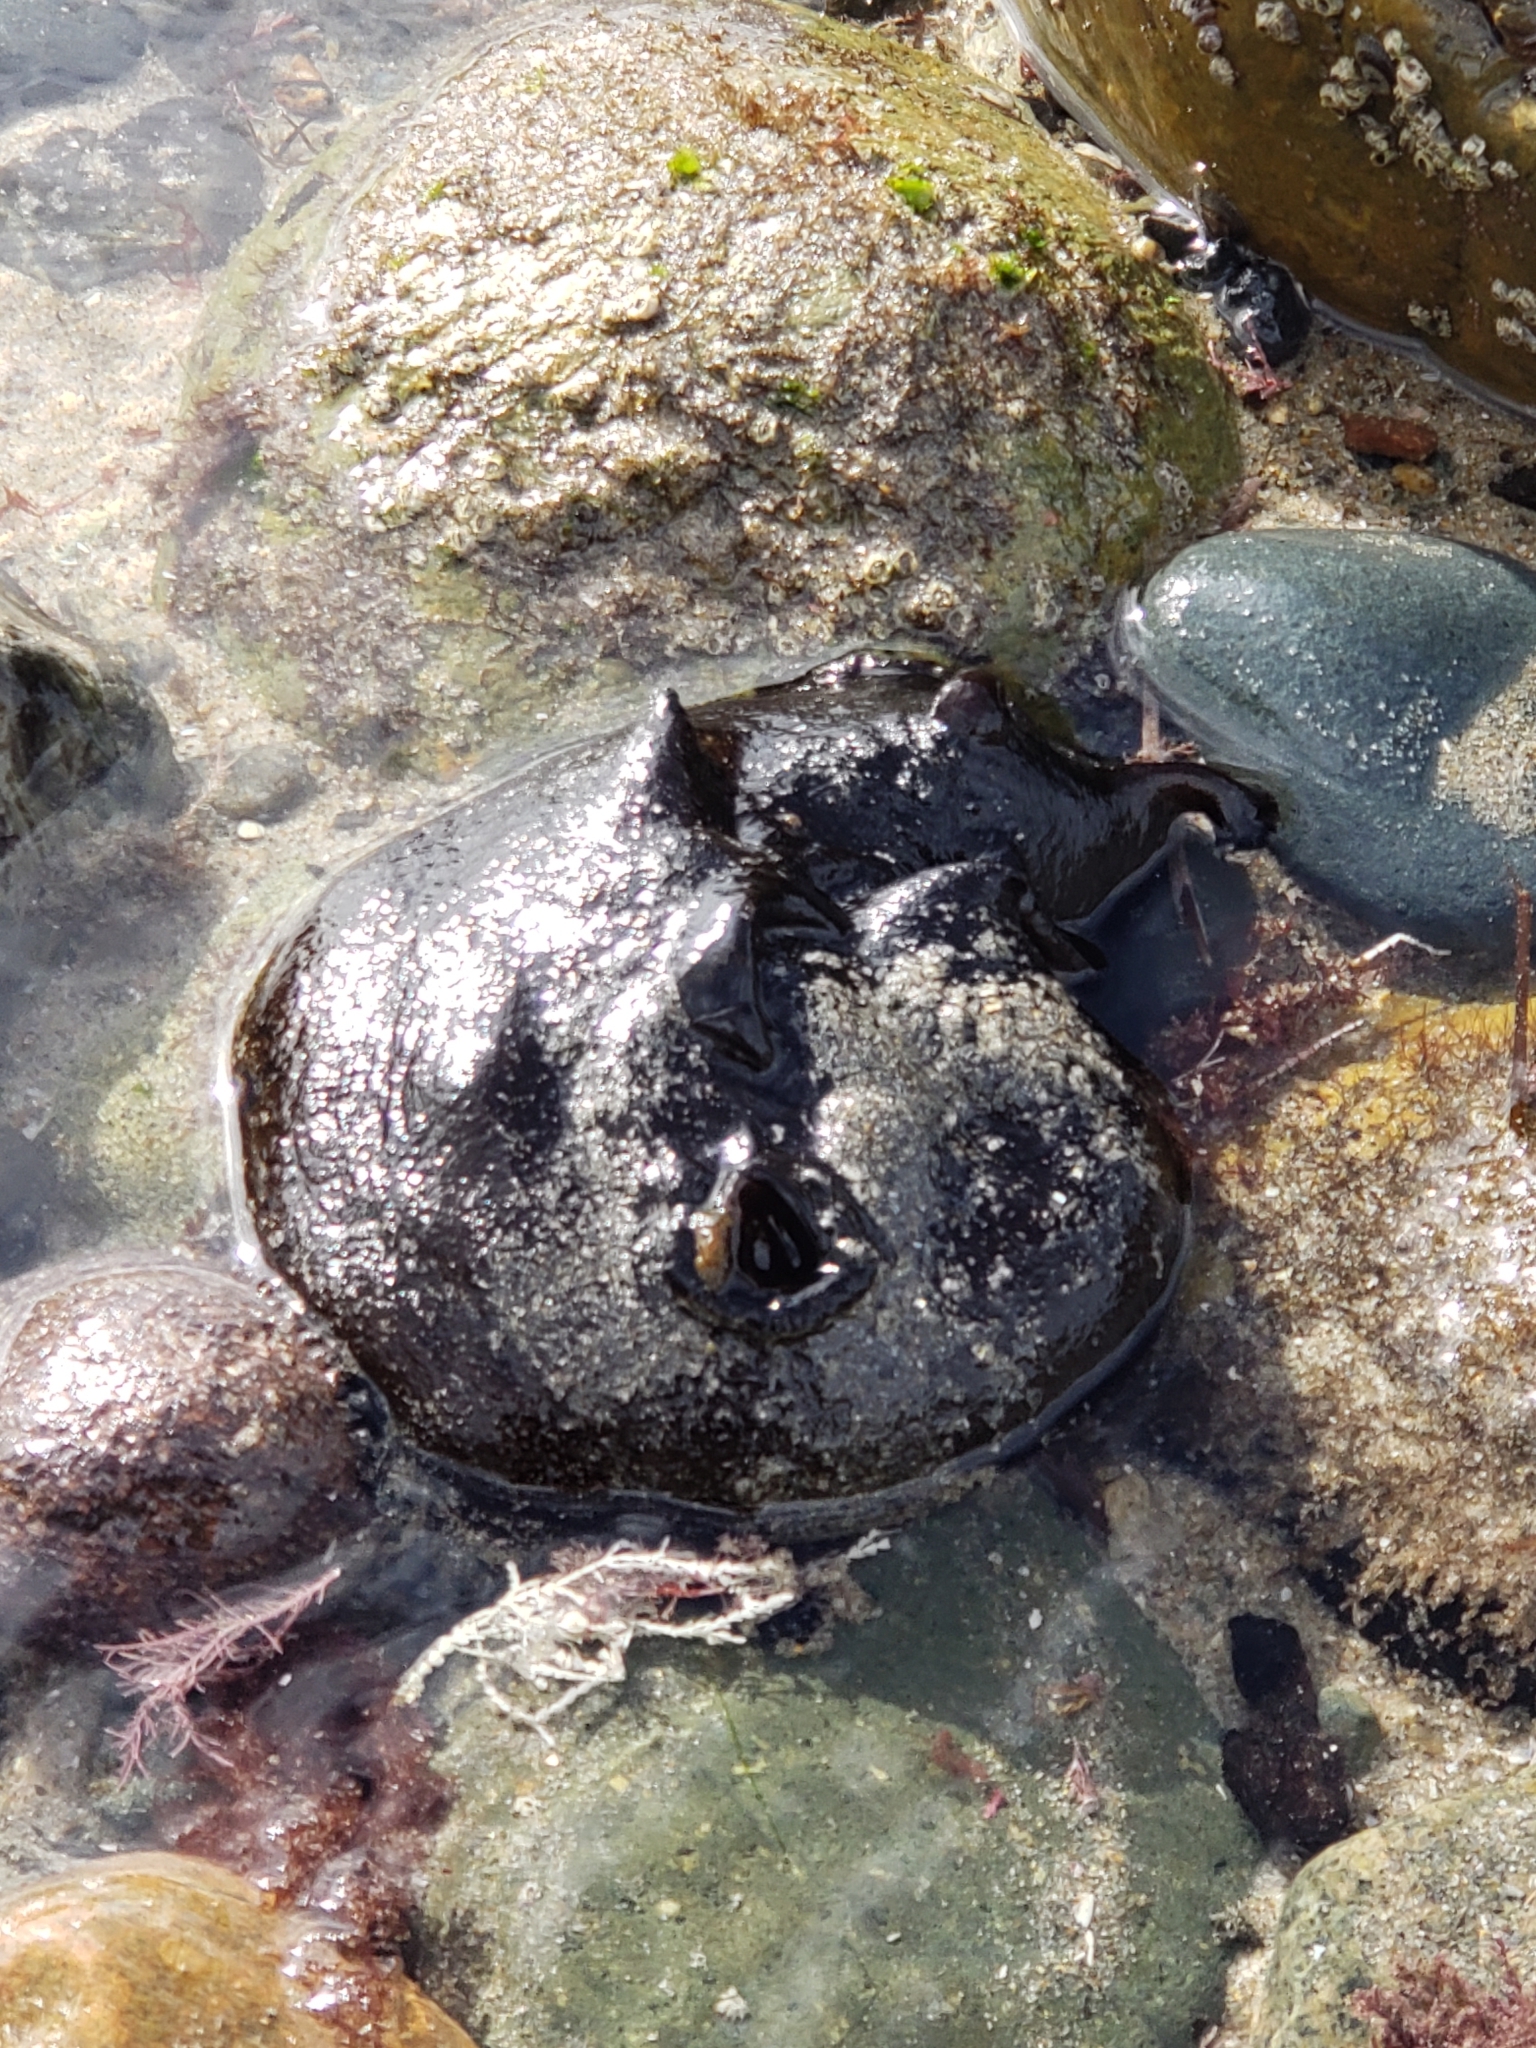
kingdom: Animalia
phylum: Mollusca
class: Gastropoda
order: Aplysiida
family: Aplysiidae
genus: Aplysia
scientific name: Aplysia vaccaria
